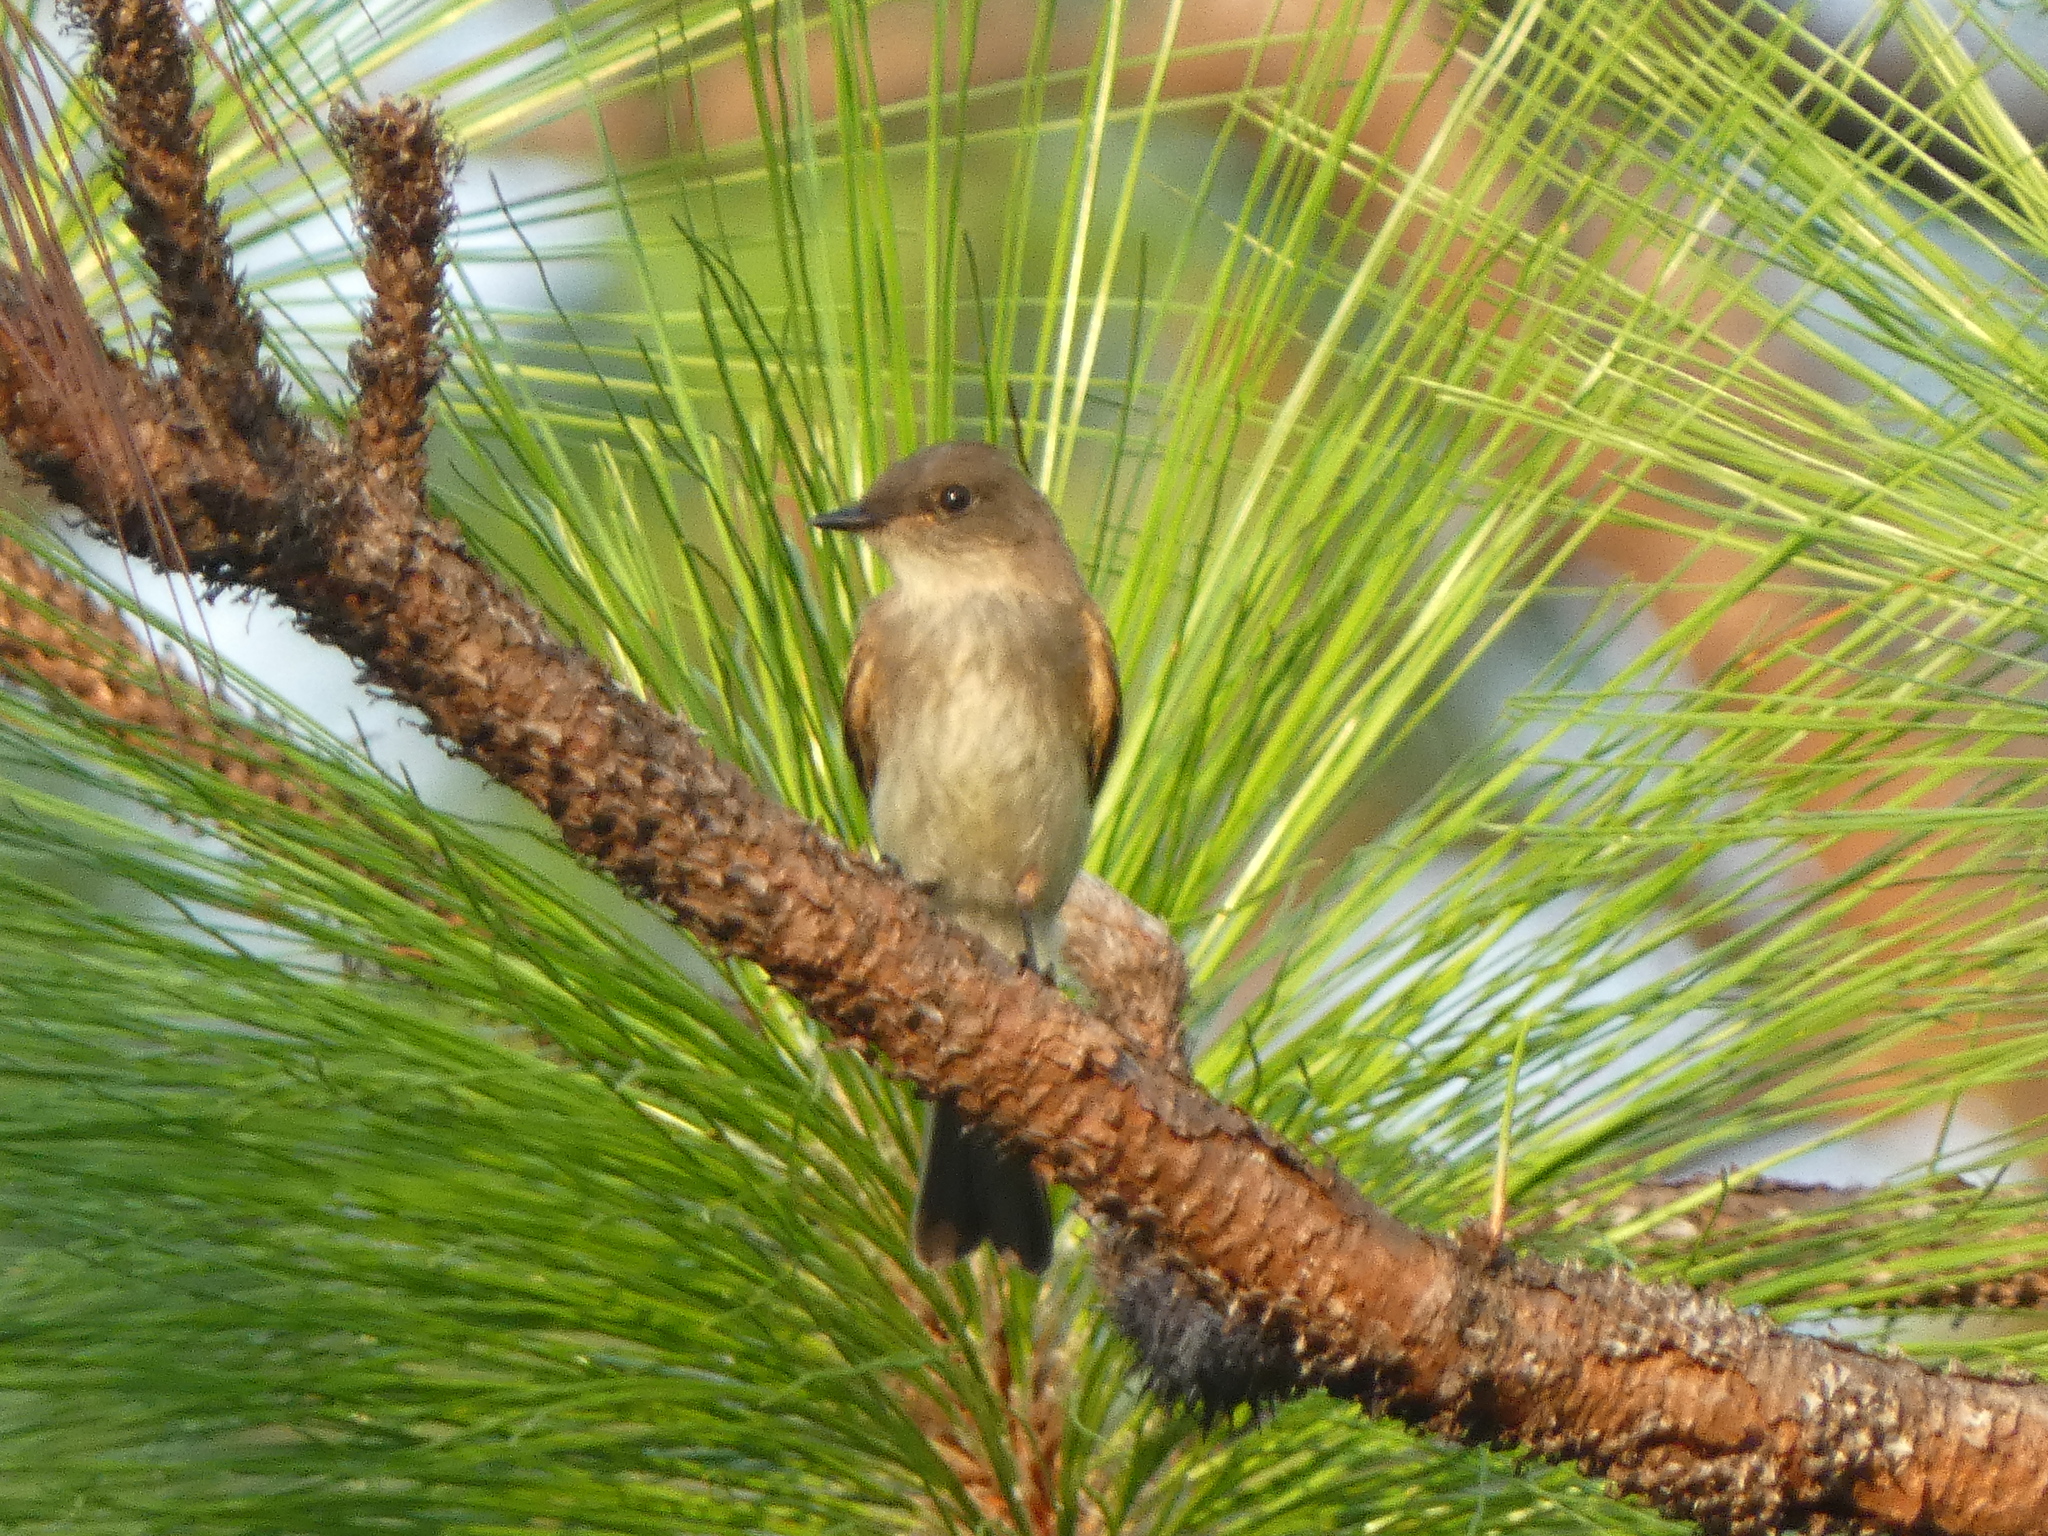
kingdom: Animalia
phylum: Chordata
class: Aves
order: Passeriformes
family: Tyrannidae
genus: Sayornis
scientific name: Sayornis phoebe
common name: Eastern phoebe
